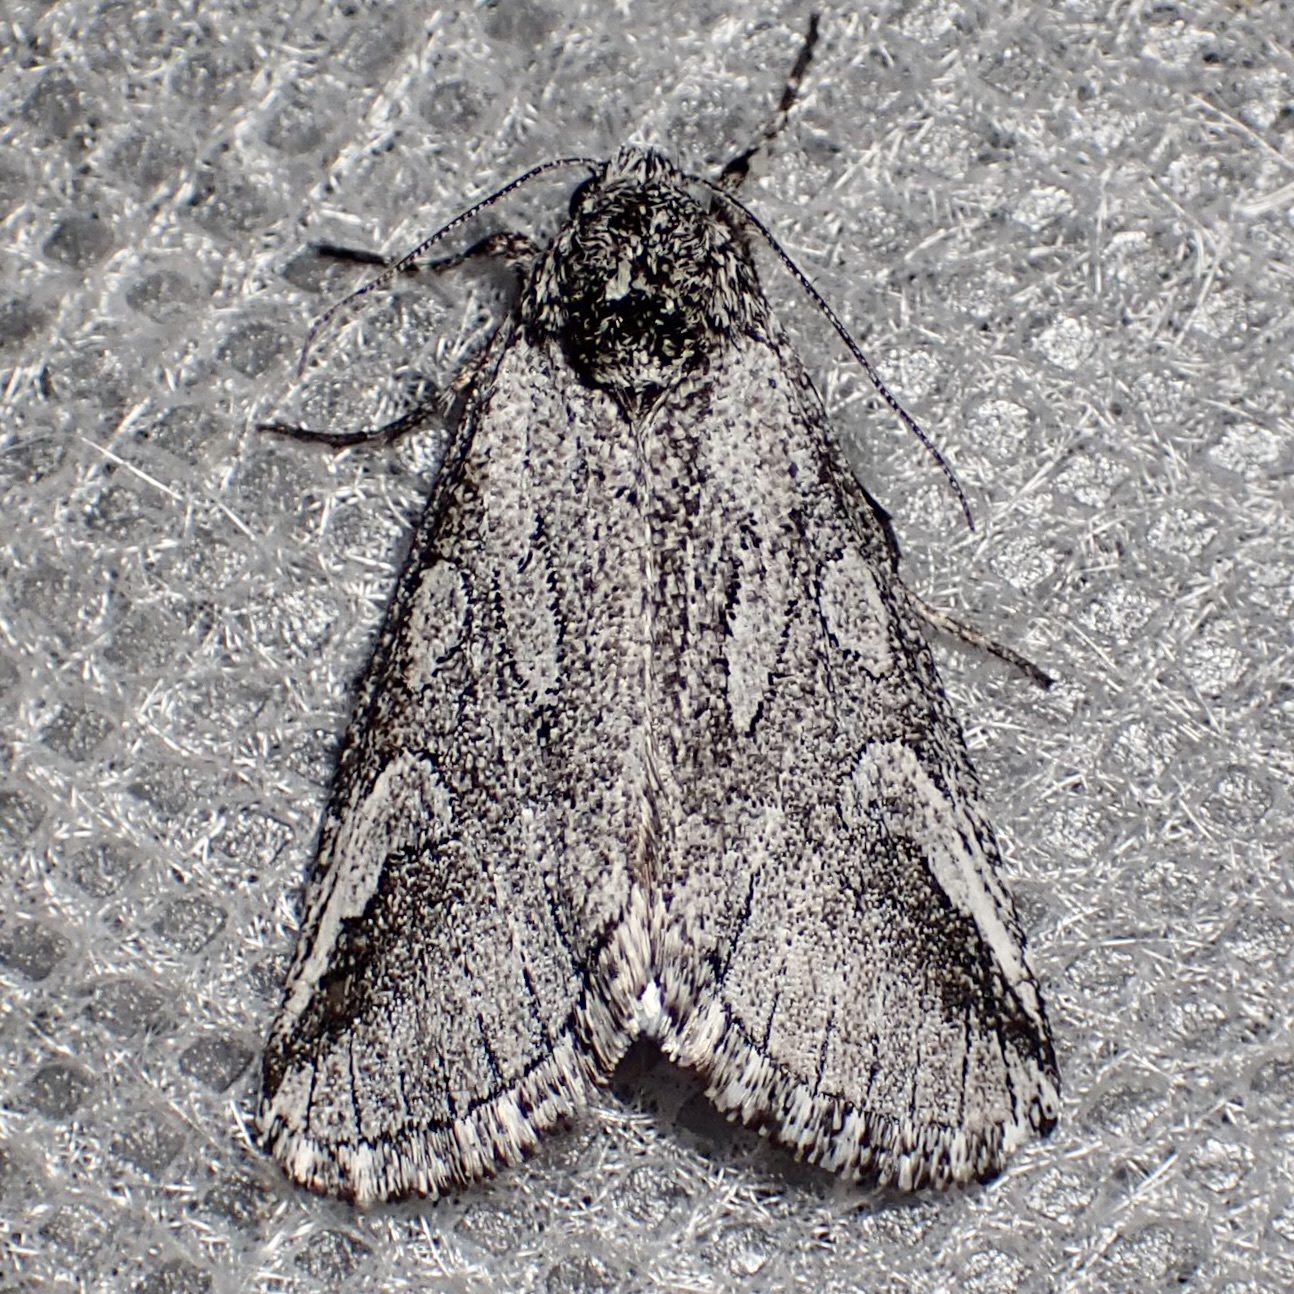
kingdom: Animalia
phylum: Arthropoda
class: Insecta
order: Lepidoptera
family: Noctuidae
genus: Oxycnemis
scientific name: Oxycnemis advena
